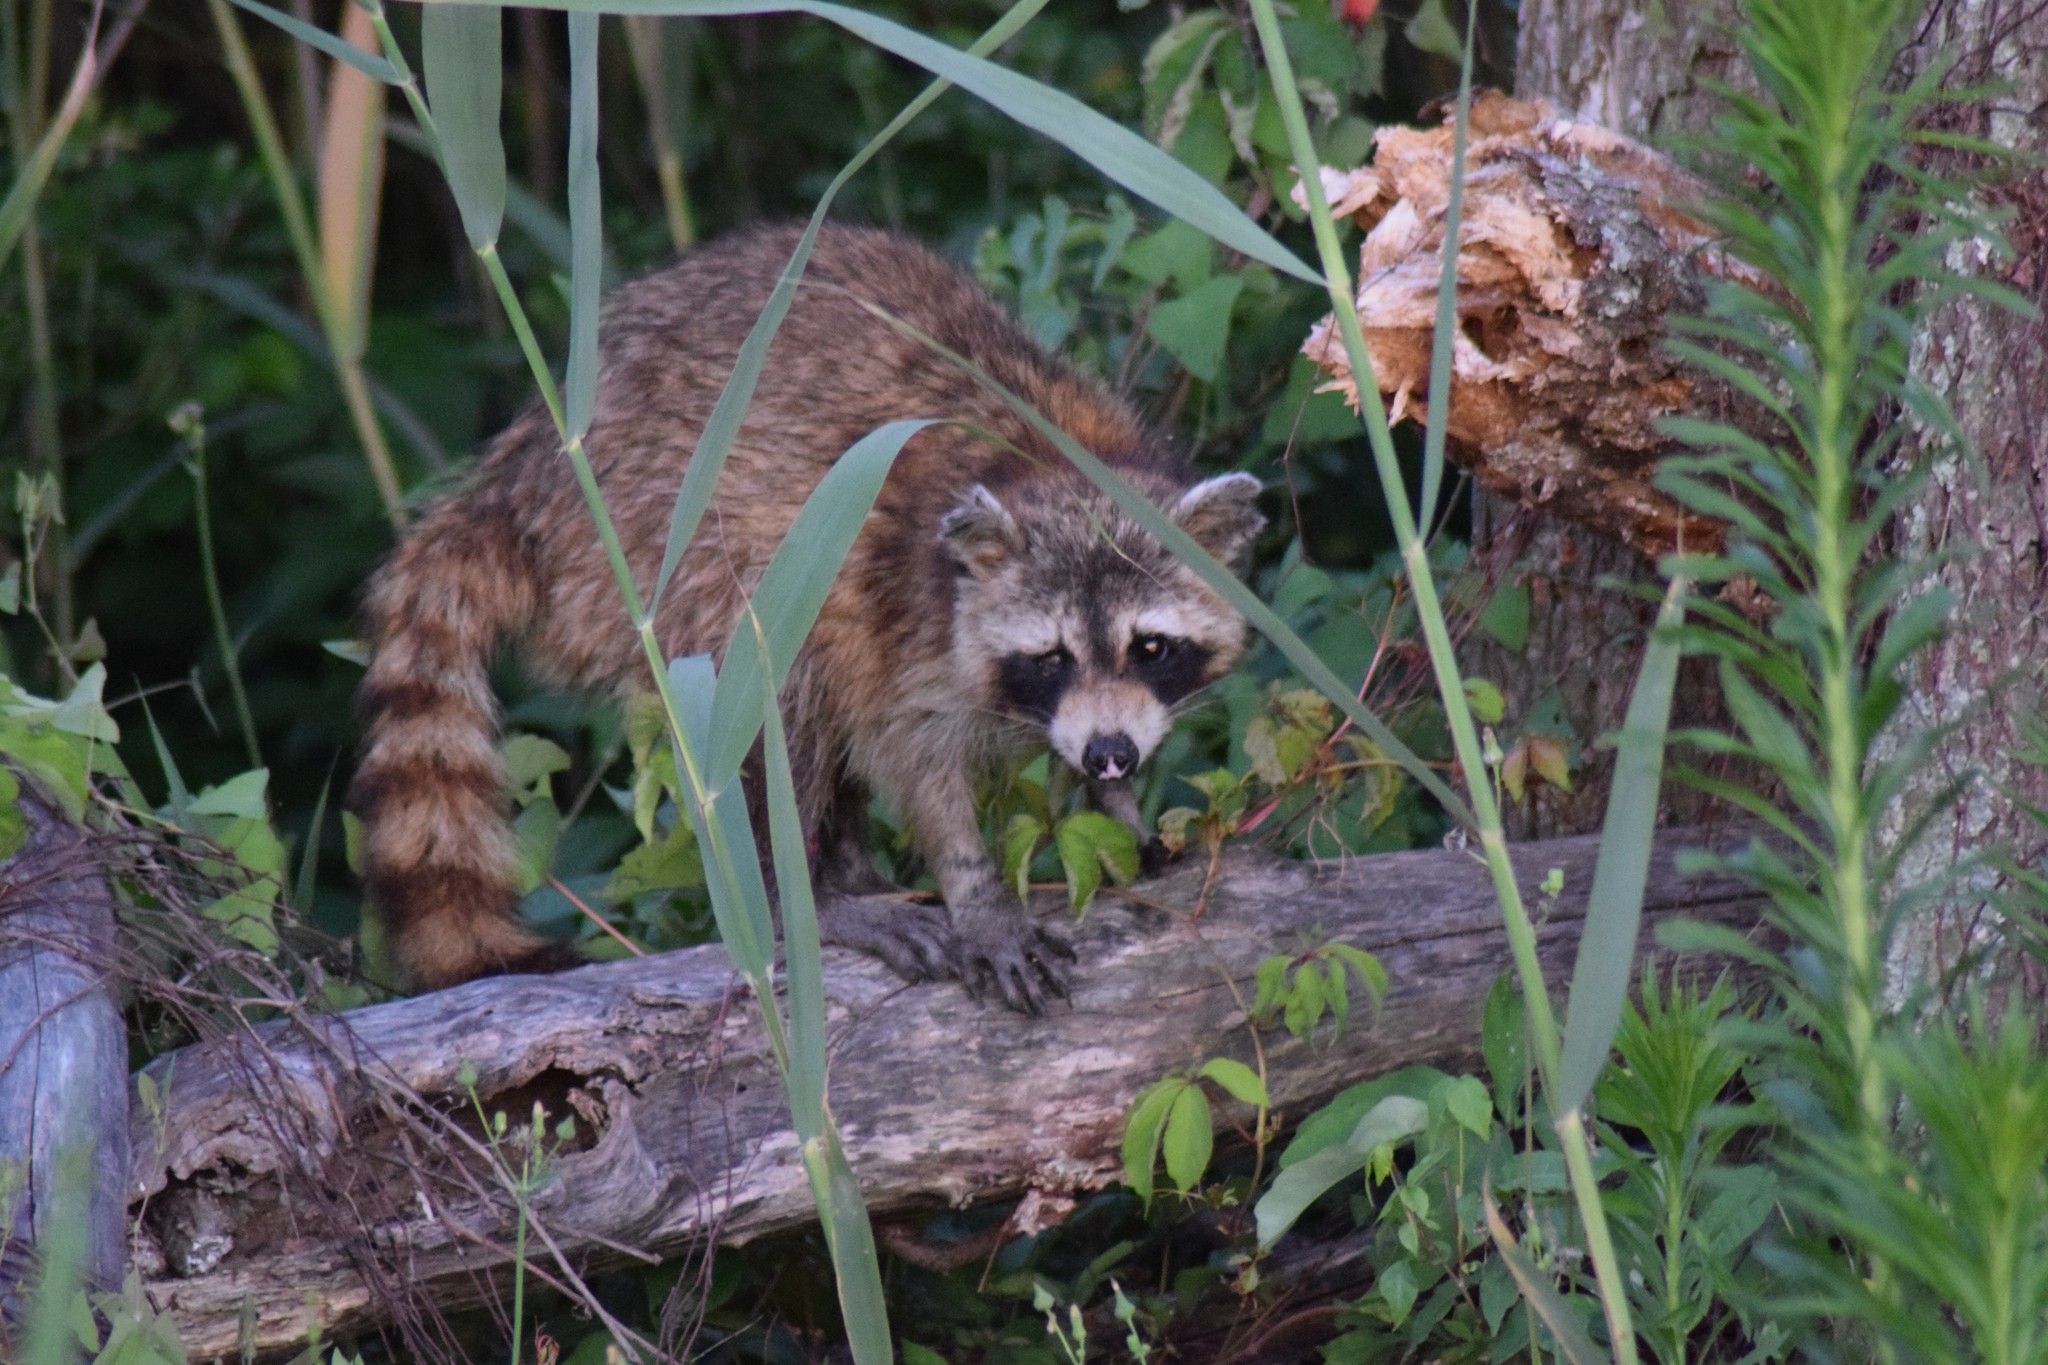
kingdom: Animalia
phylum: Chordata
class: Mammalia
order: Carnivora
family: Procyonidae
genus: Procyon
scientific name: Procyon lotor
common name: Raccoon
